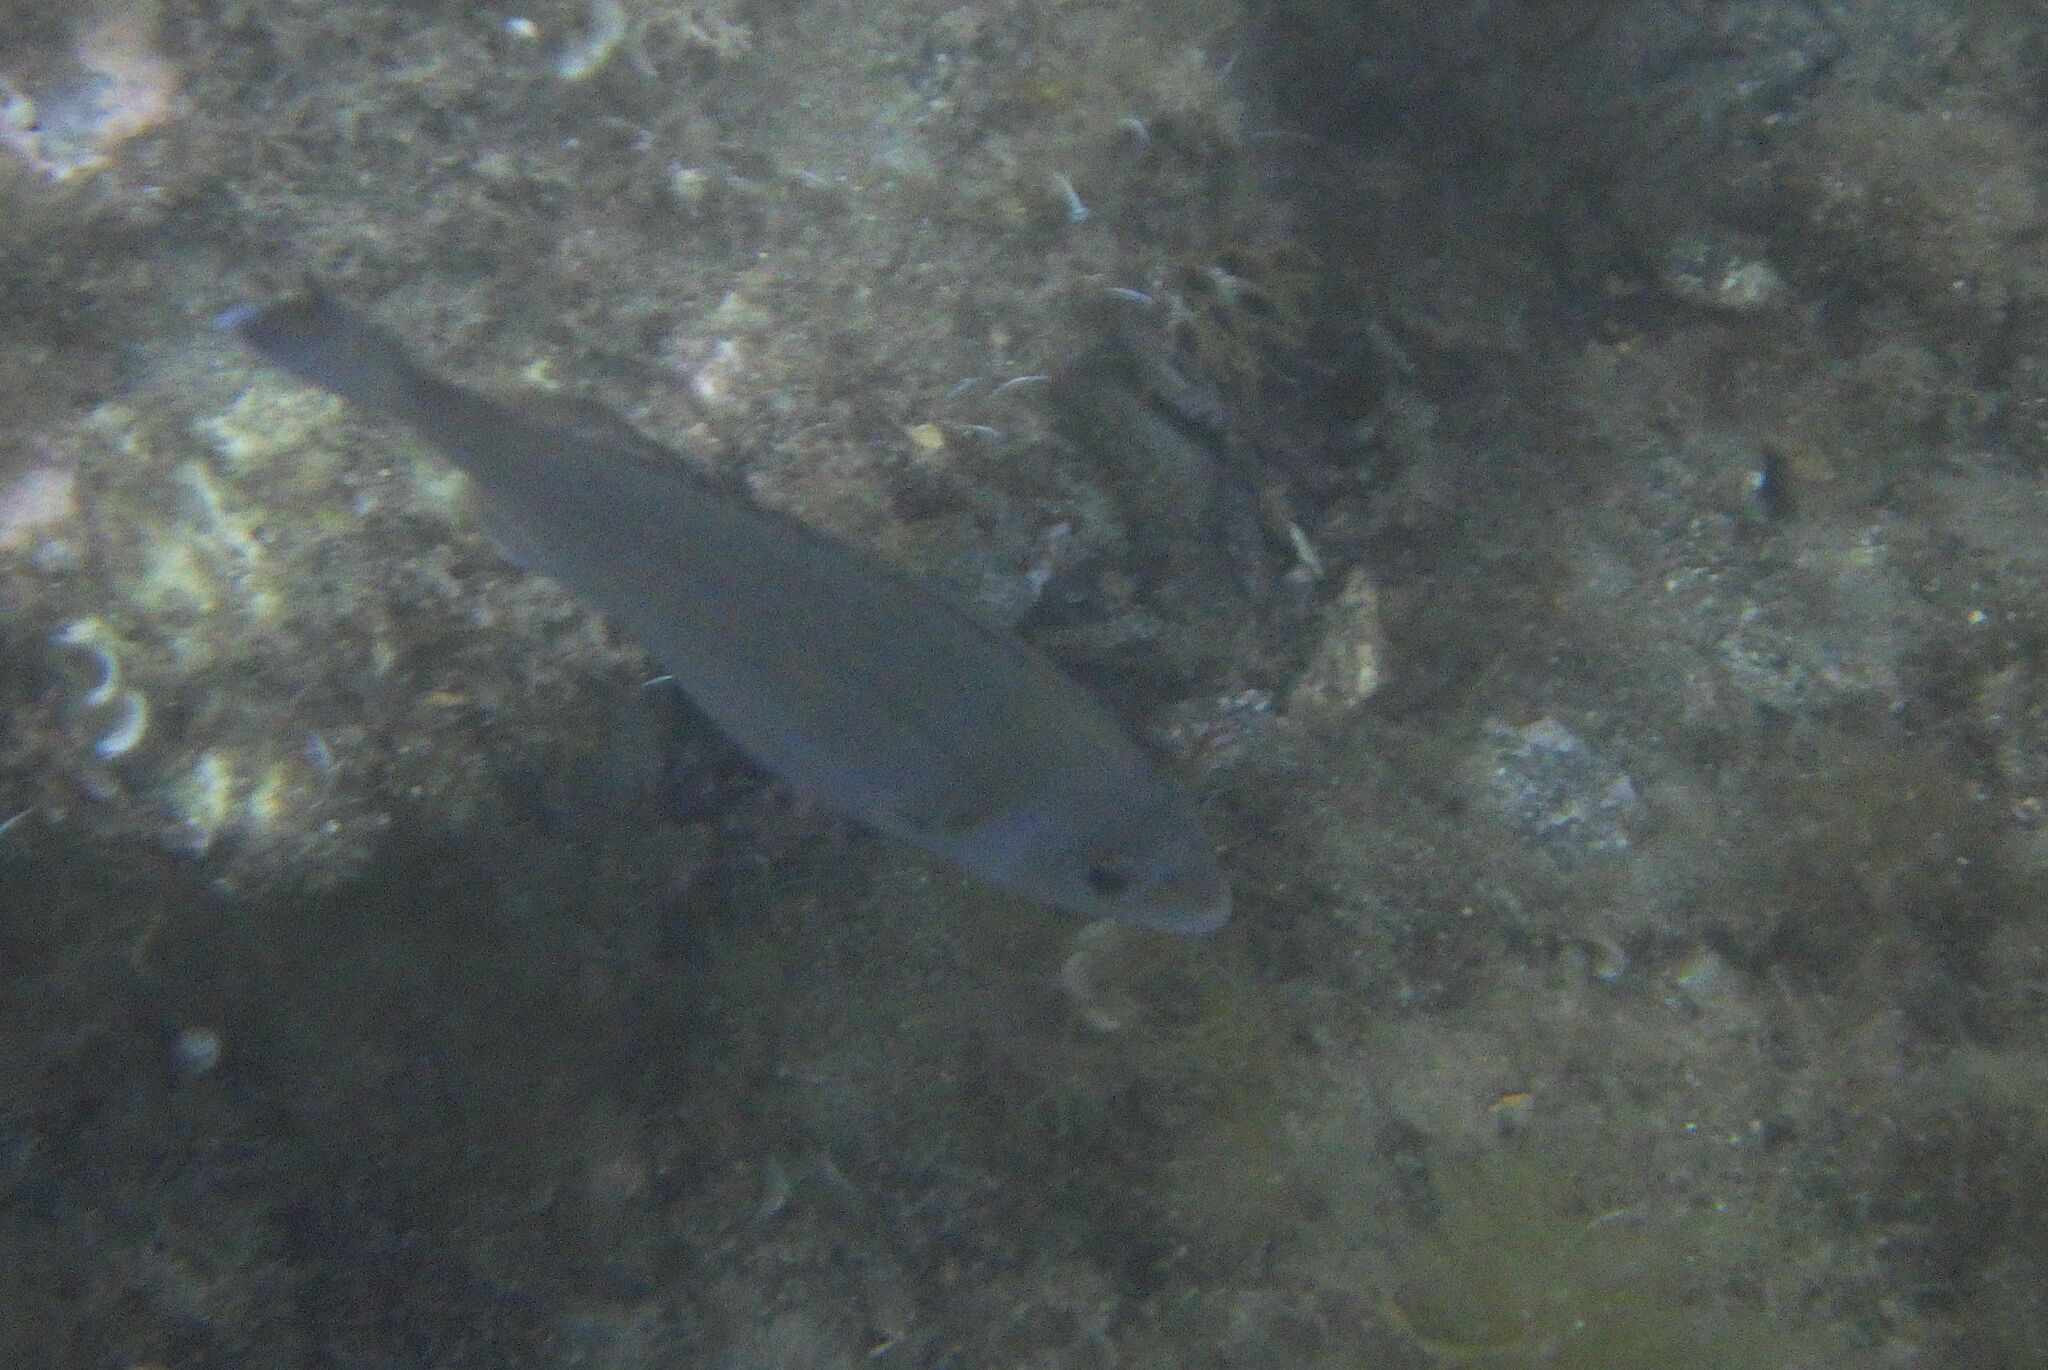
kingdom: Animalia
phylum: Chordata
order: Perciformes
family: Sparidae
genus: Spondyliosoma
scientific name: Spondyliosoma cantharus
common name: Black seabream
